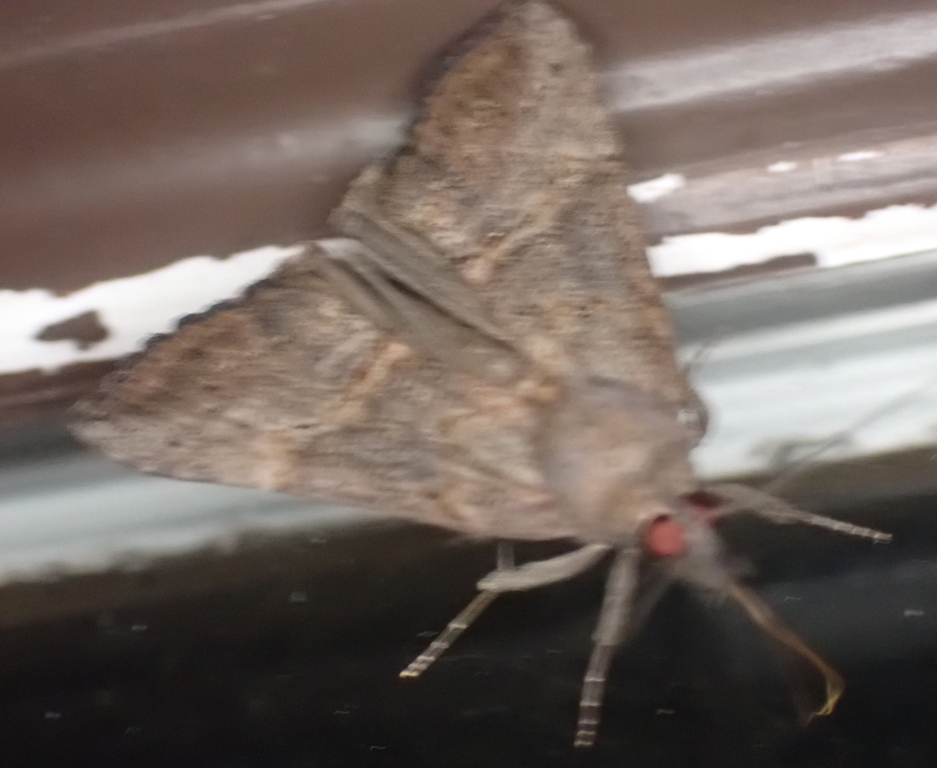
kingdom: Animalia
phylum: Arthropoda
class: Insecta
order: Lepidoptera
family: Erebidae
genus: Hypena
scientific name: Hypena scabra
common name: Green cloverworm
